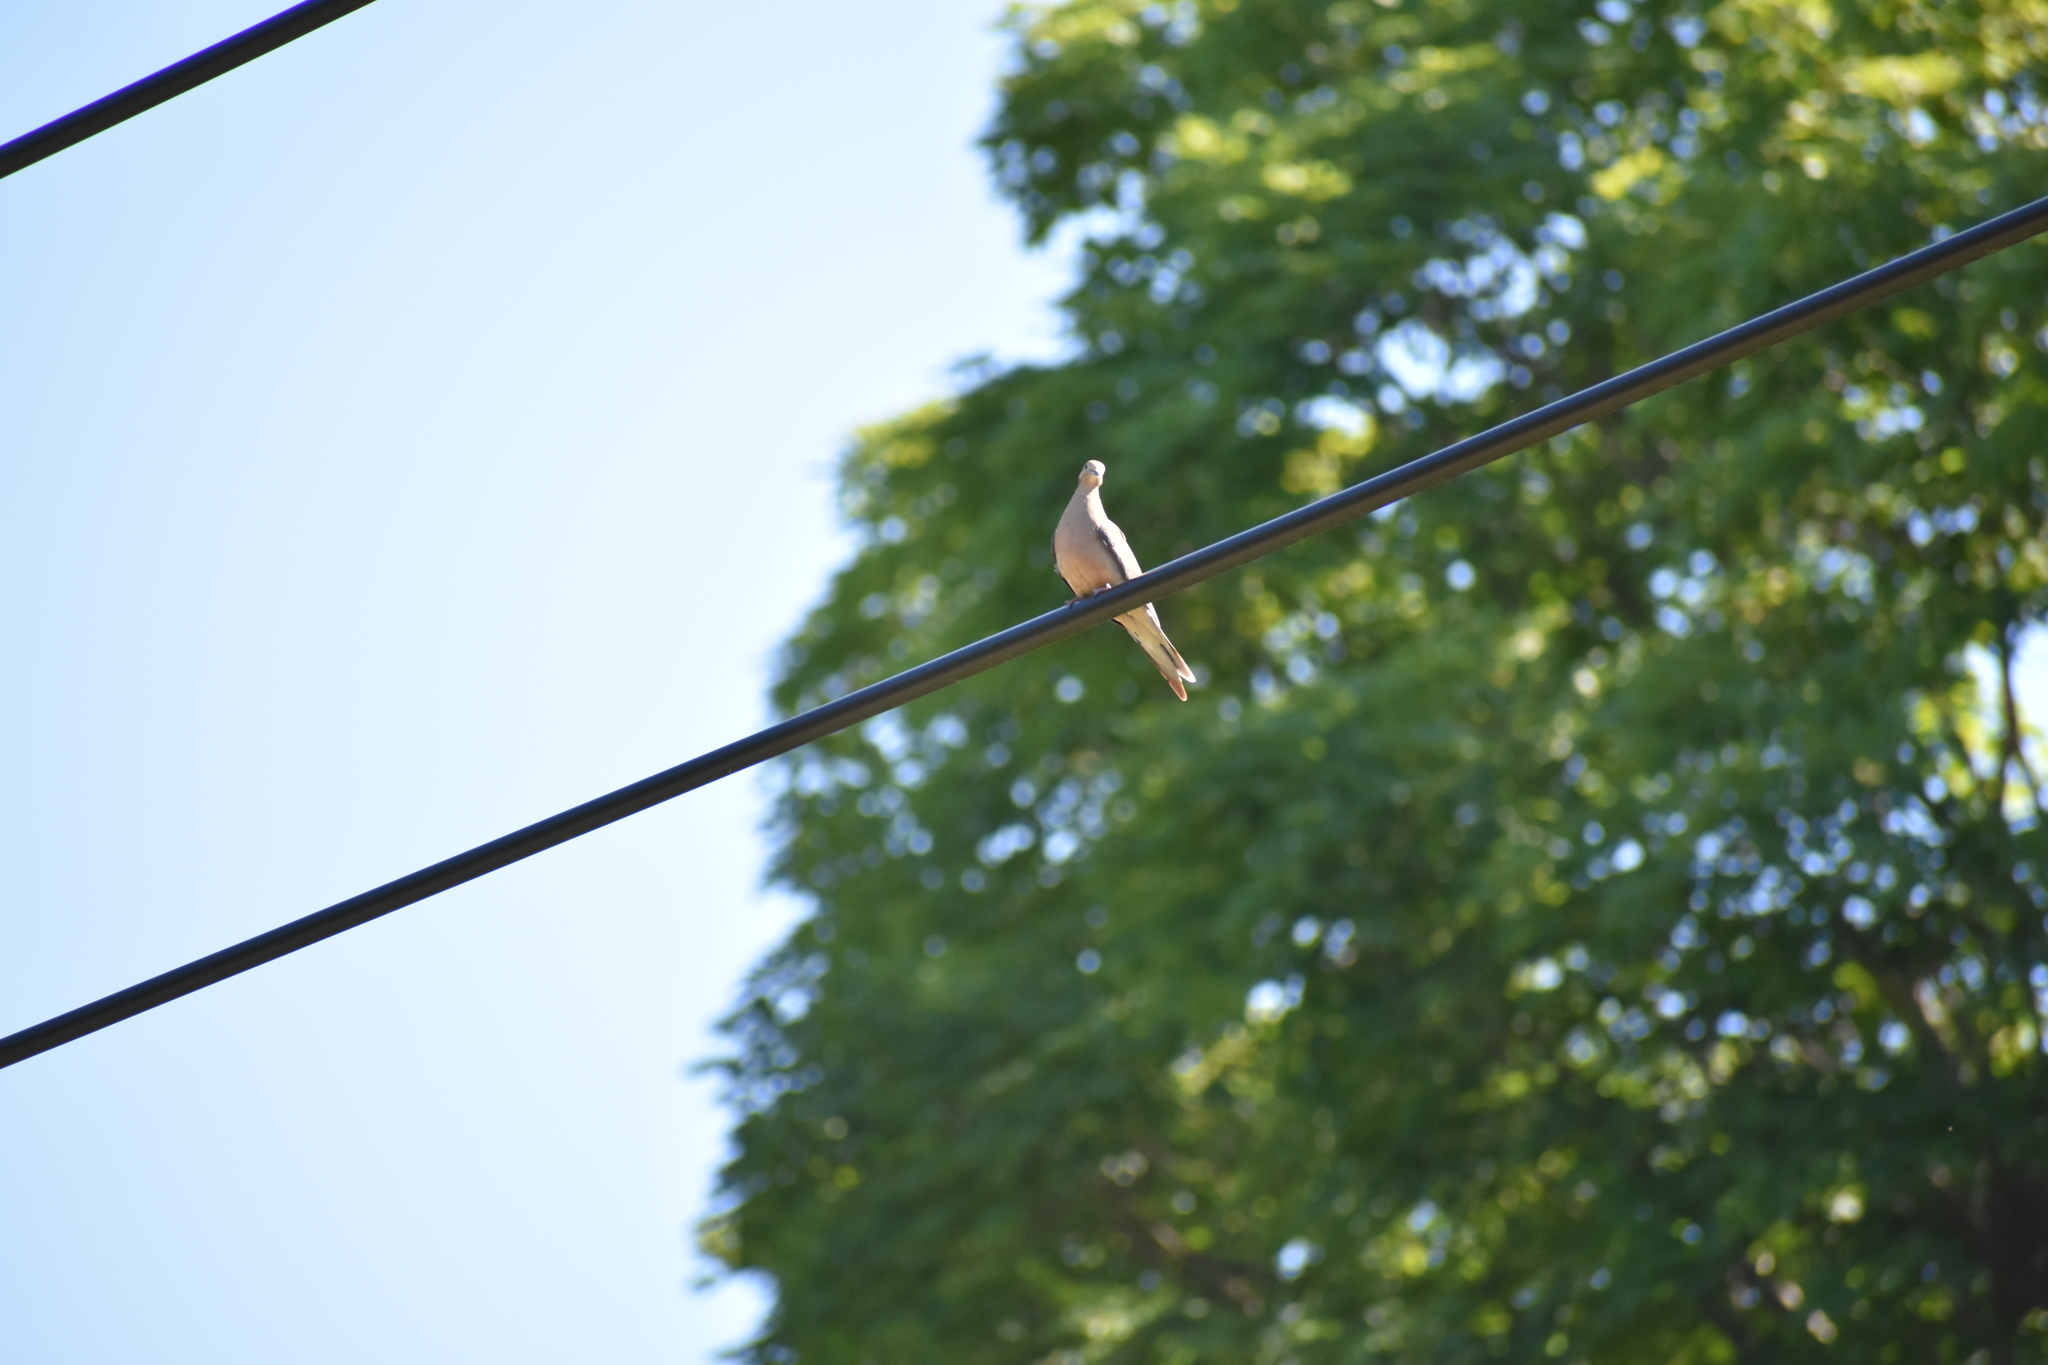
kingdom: Animalia
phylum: Chordata
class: Aves
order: Columbiformes
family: Columbidae
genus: Zenaida
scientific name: Zenaida macroura
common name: Mourning dove
